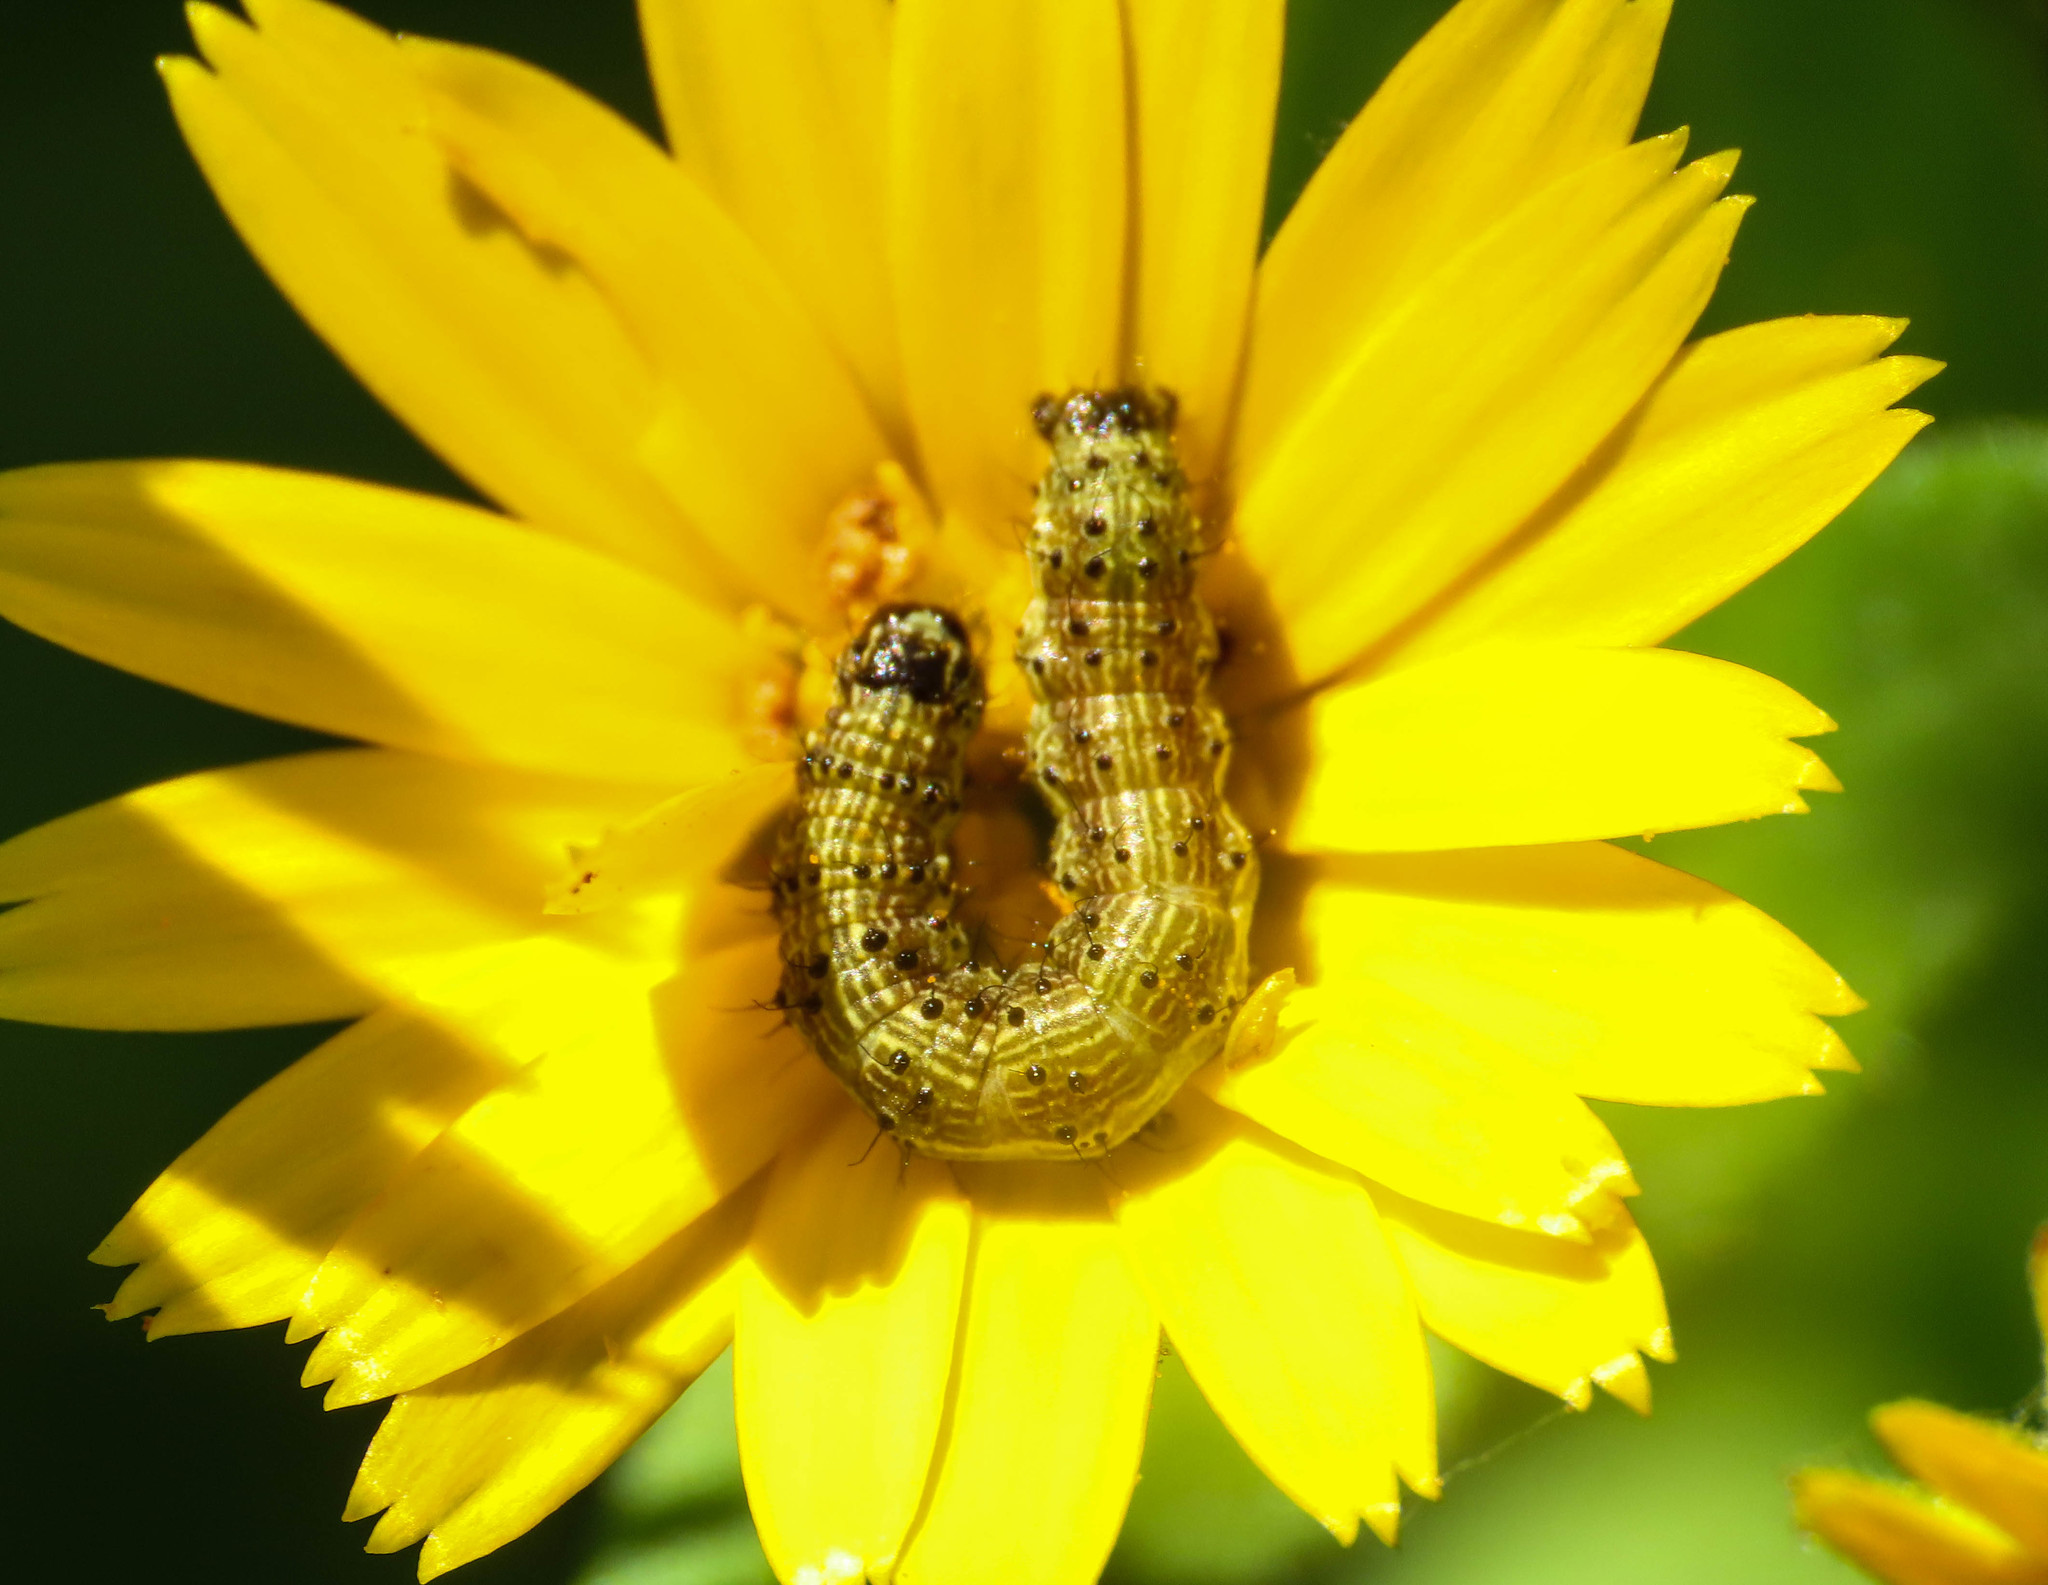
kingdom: Animalia
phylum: Arthropoda
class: Insecta
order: Lepidoptera
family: Noctuidae
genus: Helicoverpa
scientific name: Helicoverpa armigera
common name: Cotton bollworm
